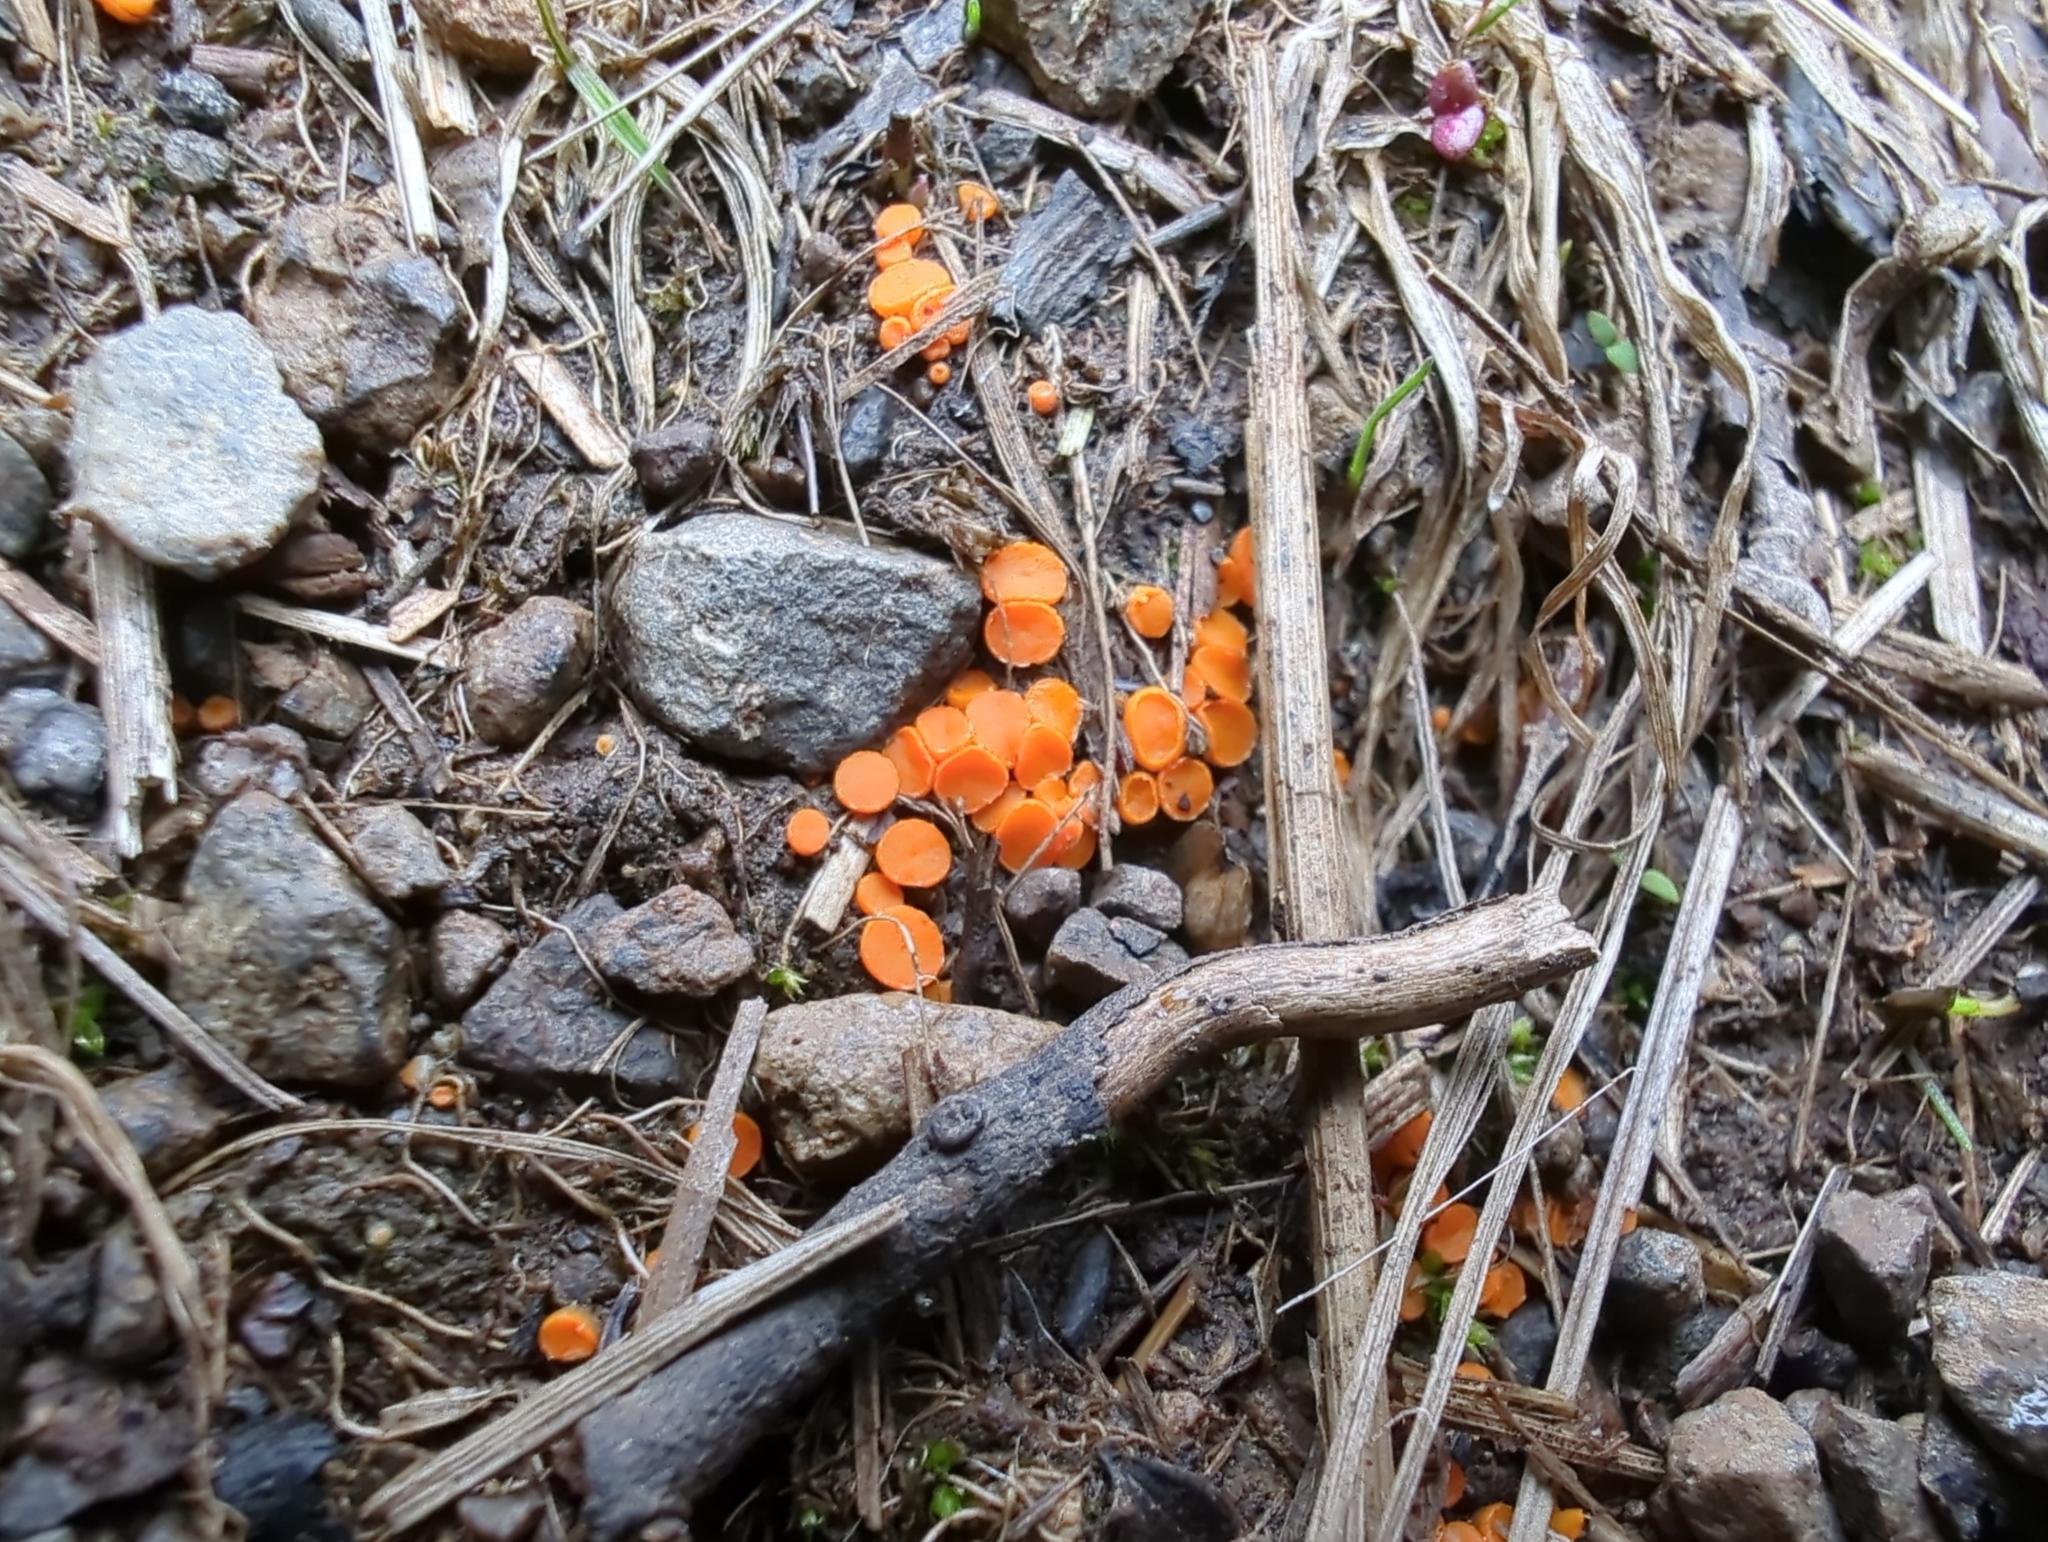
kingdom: Fungi
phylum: Ascomycota
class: Pezizomycetes
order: Pezizales
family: Pyronemataceae
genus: Byssonectria
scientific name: Byssonectria terrestris
